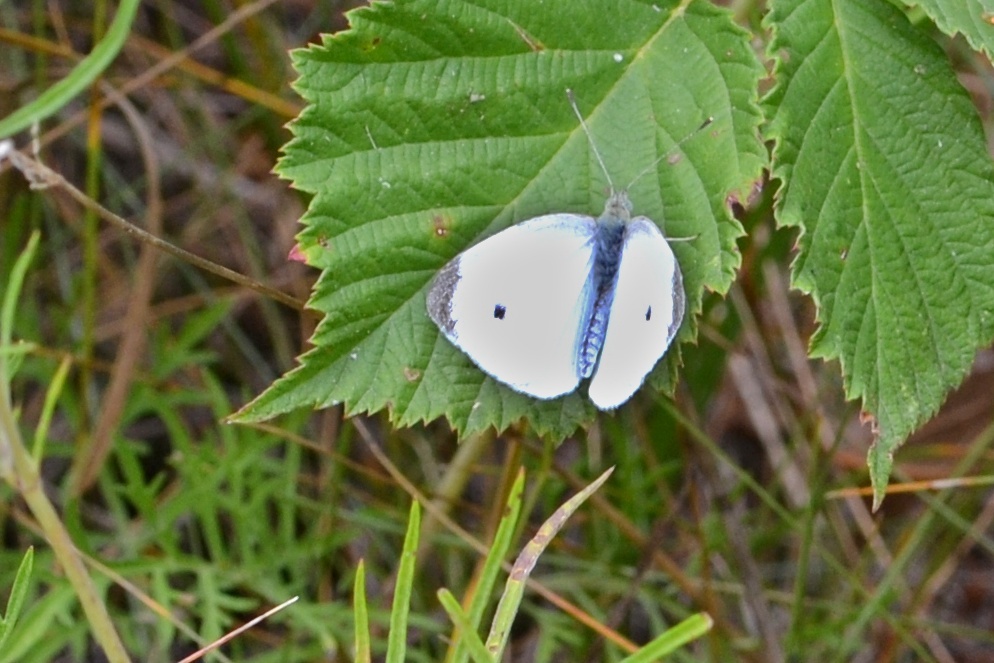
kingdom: Animalia
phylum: Arthropoda
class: Insecta
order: Lepidoptera
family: Pieridae
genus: Pieris
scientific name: Pieris rapae
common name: Small white
